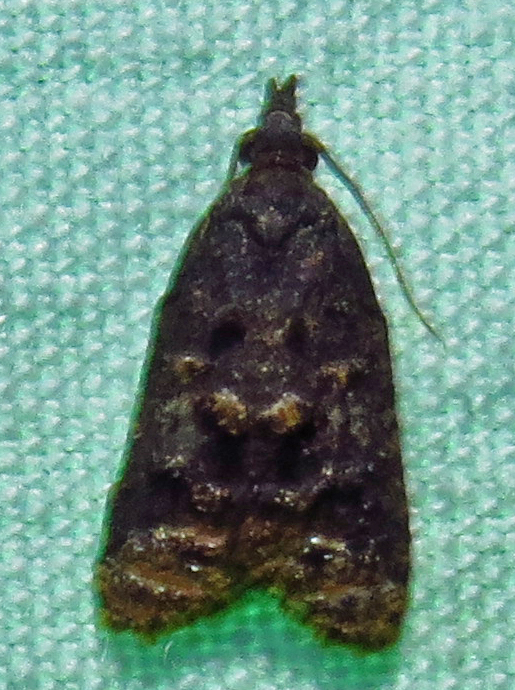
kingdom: Animalia
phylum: Arthropoda
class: Insecta
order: Lepidoptera
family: Tortricidae
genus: Platynota
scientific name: Platynota idaeusalis
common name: Tufted apple bud moth
